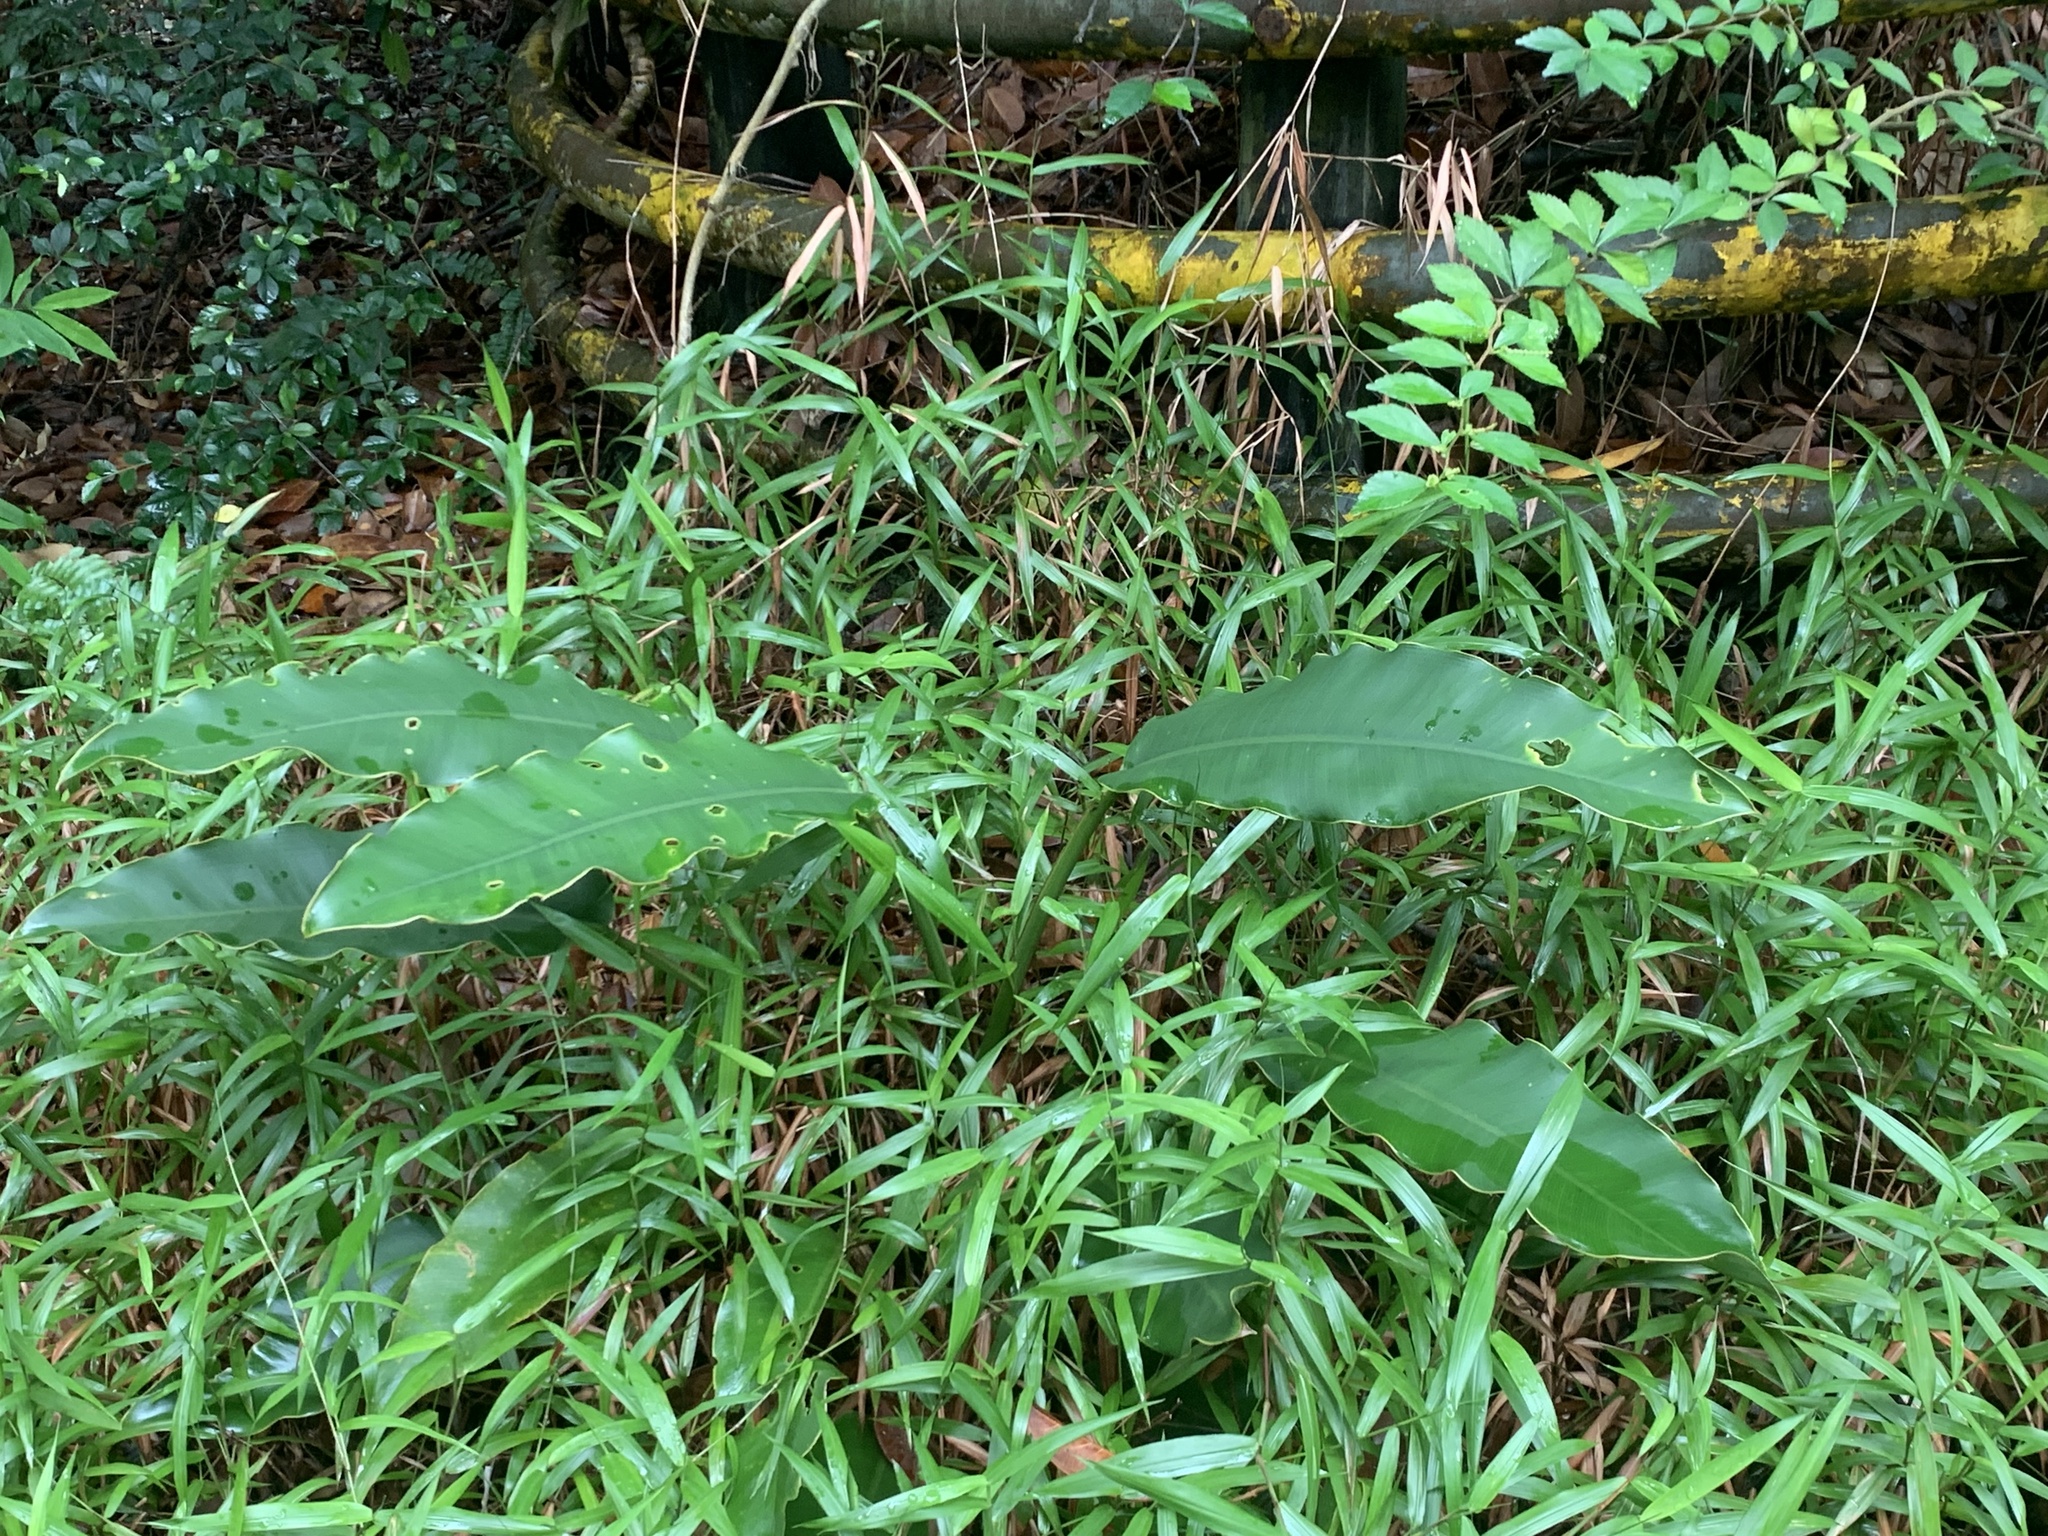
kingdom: Plantae
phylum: Tracheophyta
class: Liliopsida
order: Alismatales
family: Araceae
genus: Epipremnum
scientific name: Epipremnum giganteum
